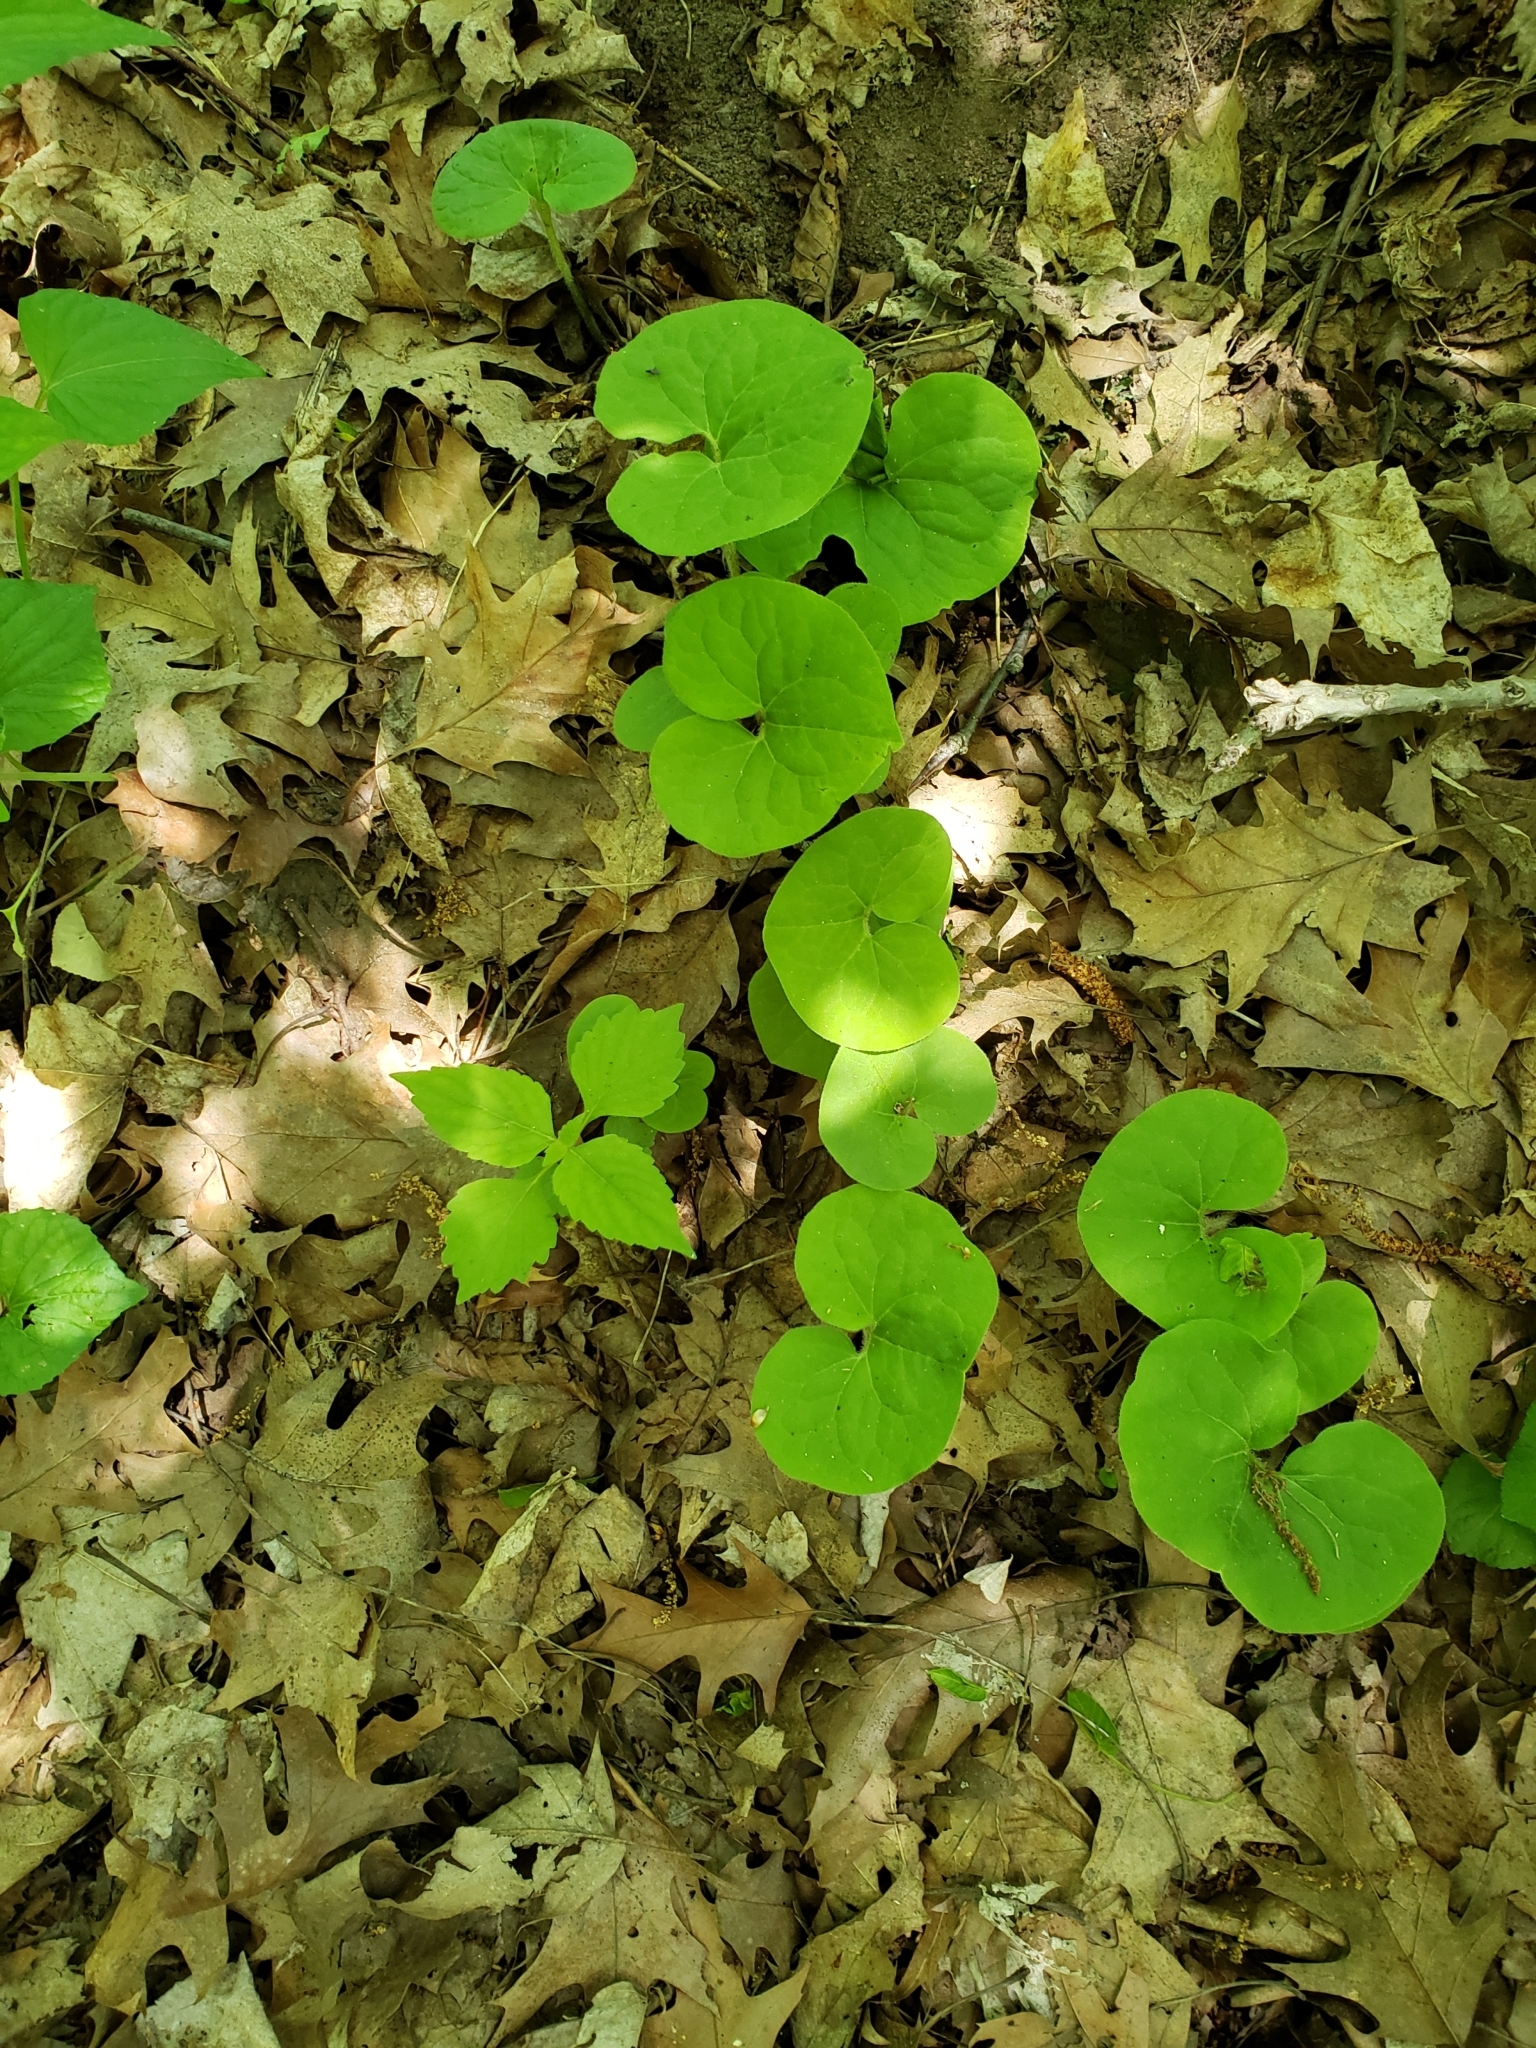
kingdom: Plantae
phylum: Tracheophyta
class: Magnoliopsida
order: Piperales
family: Aristolochiaceae
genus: Asarum
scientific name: Asarum canadense
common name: Wild ginger
